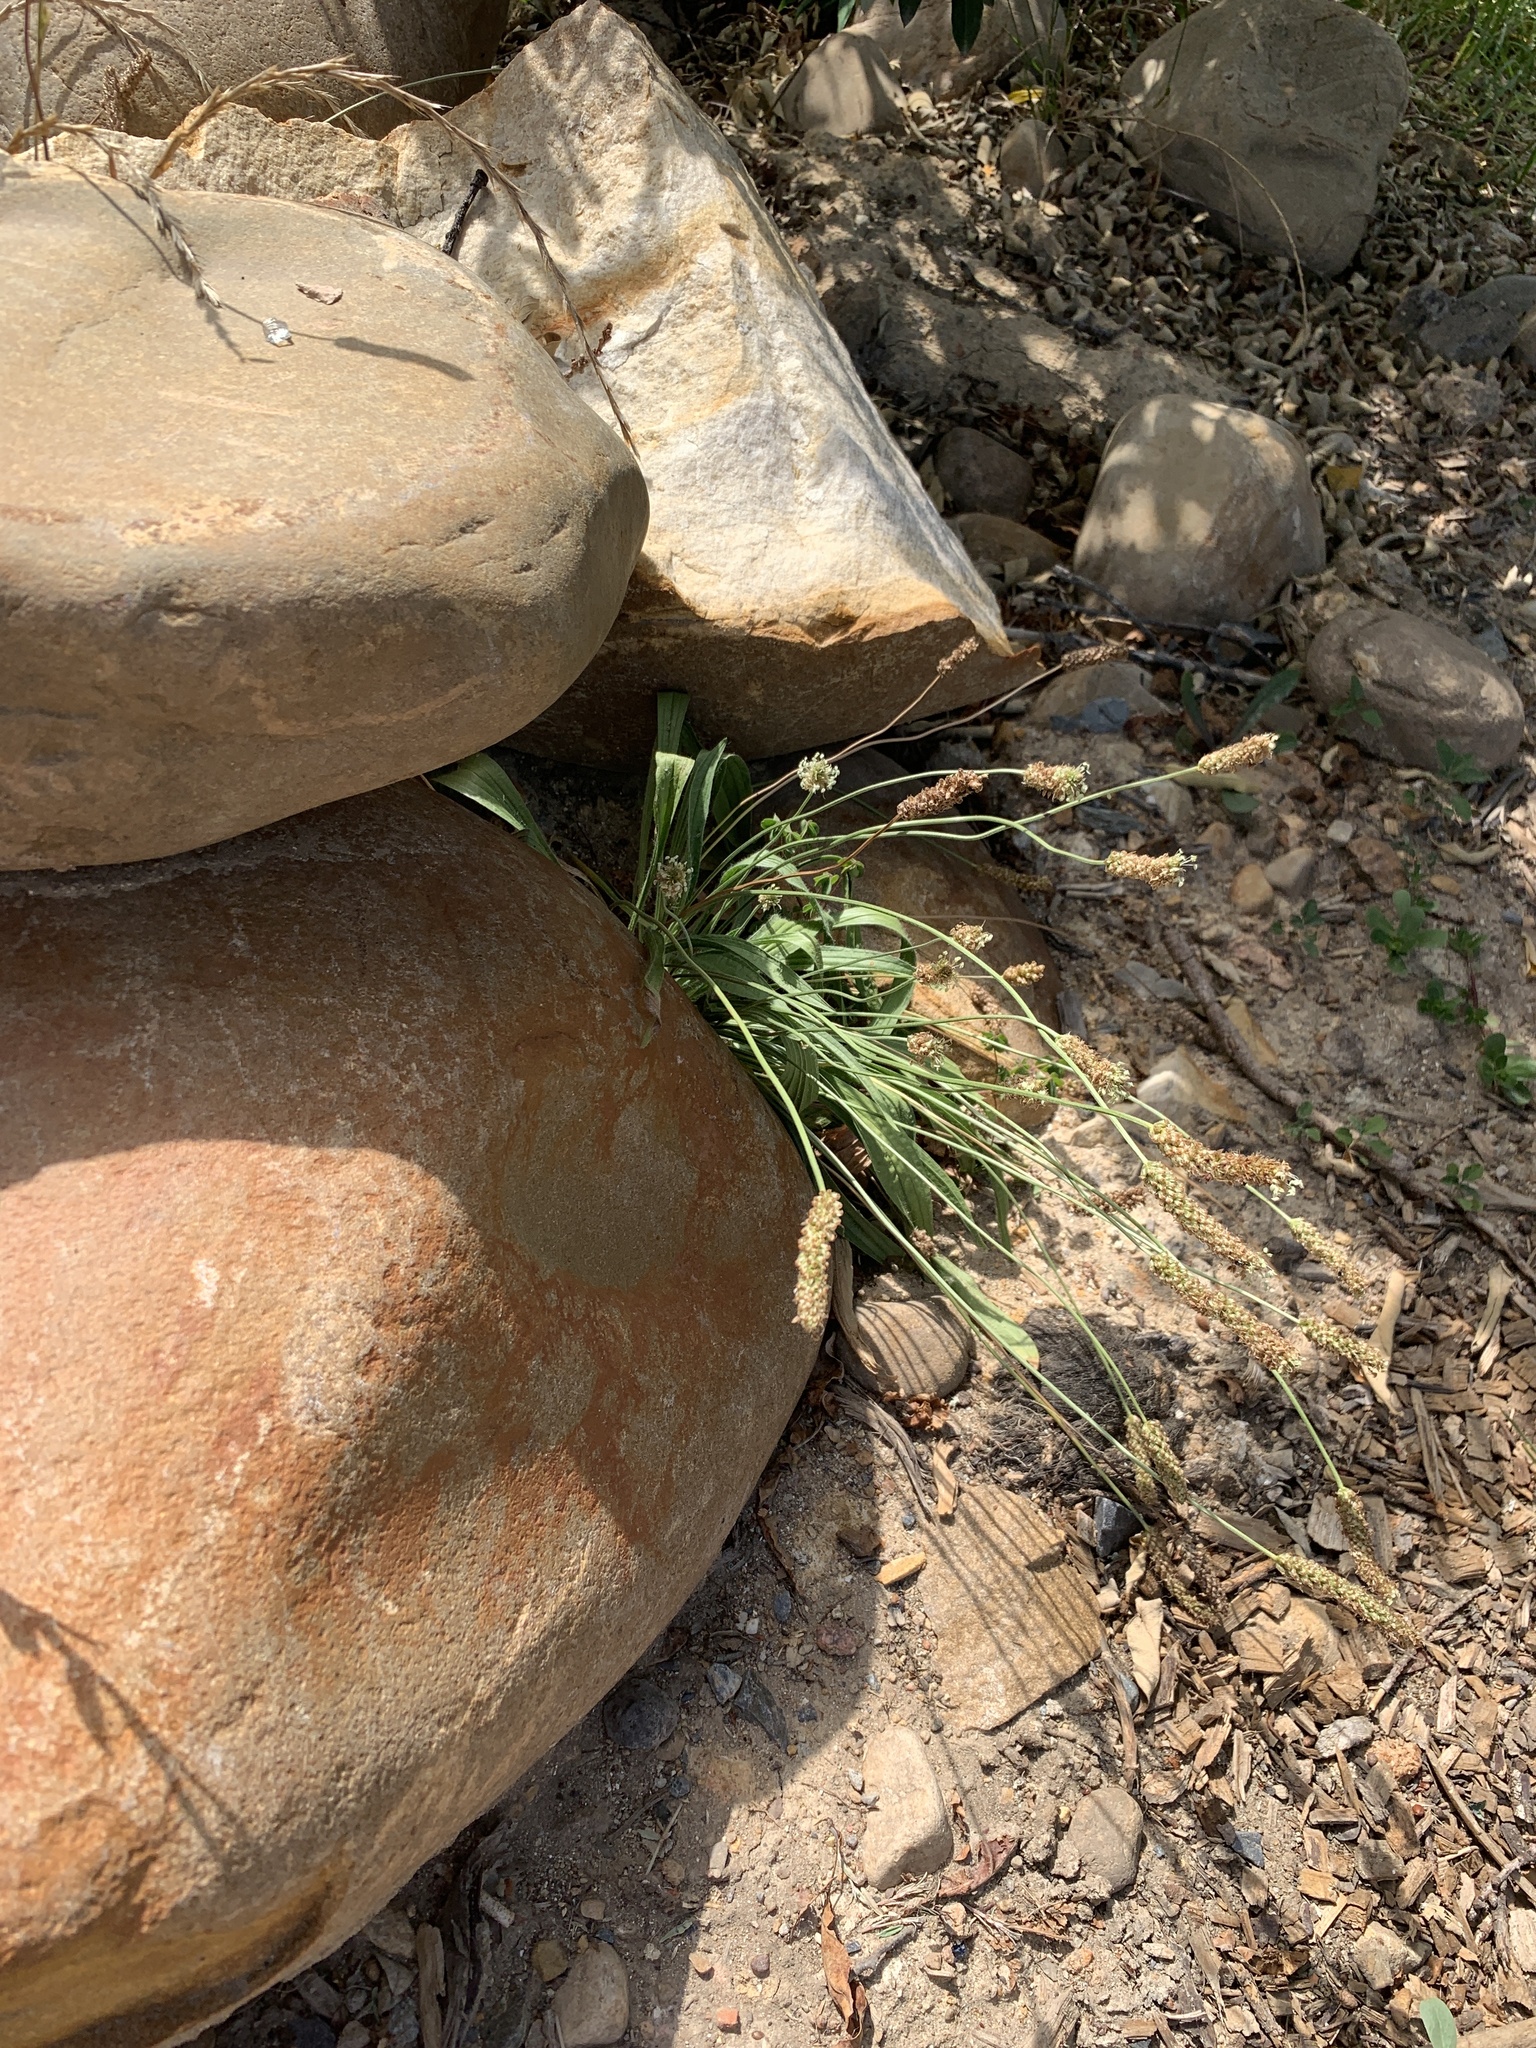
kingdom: Plantae
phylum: Tracheophyta
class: Magnoliopsida
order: Lamiales
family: Plantaginaceae
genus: Plantago
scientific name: Plantago lanceolata
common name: Ribwort plantain
